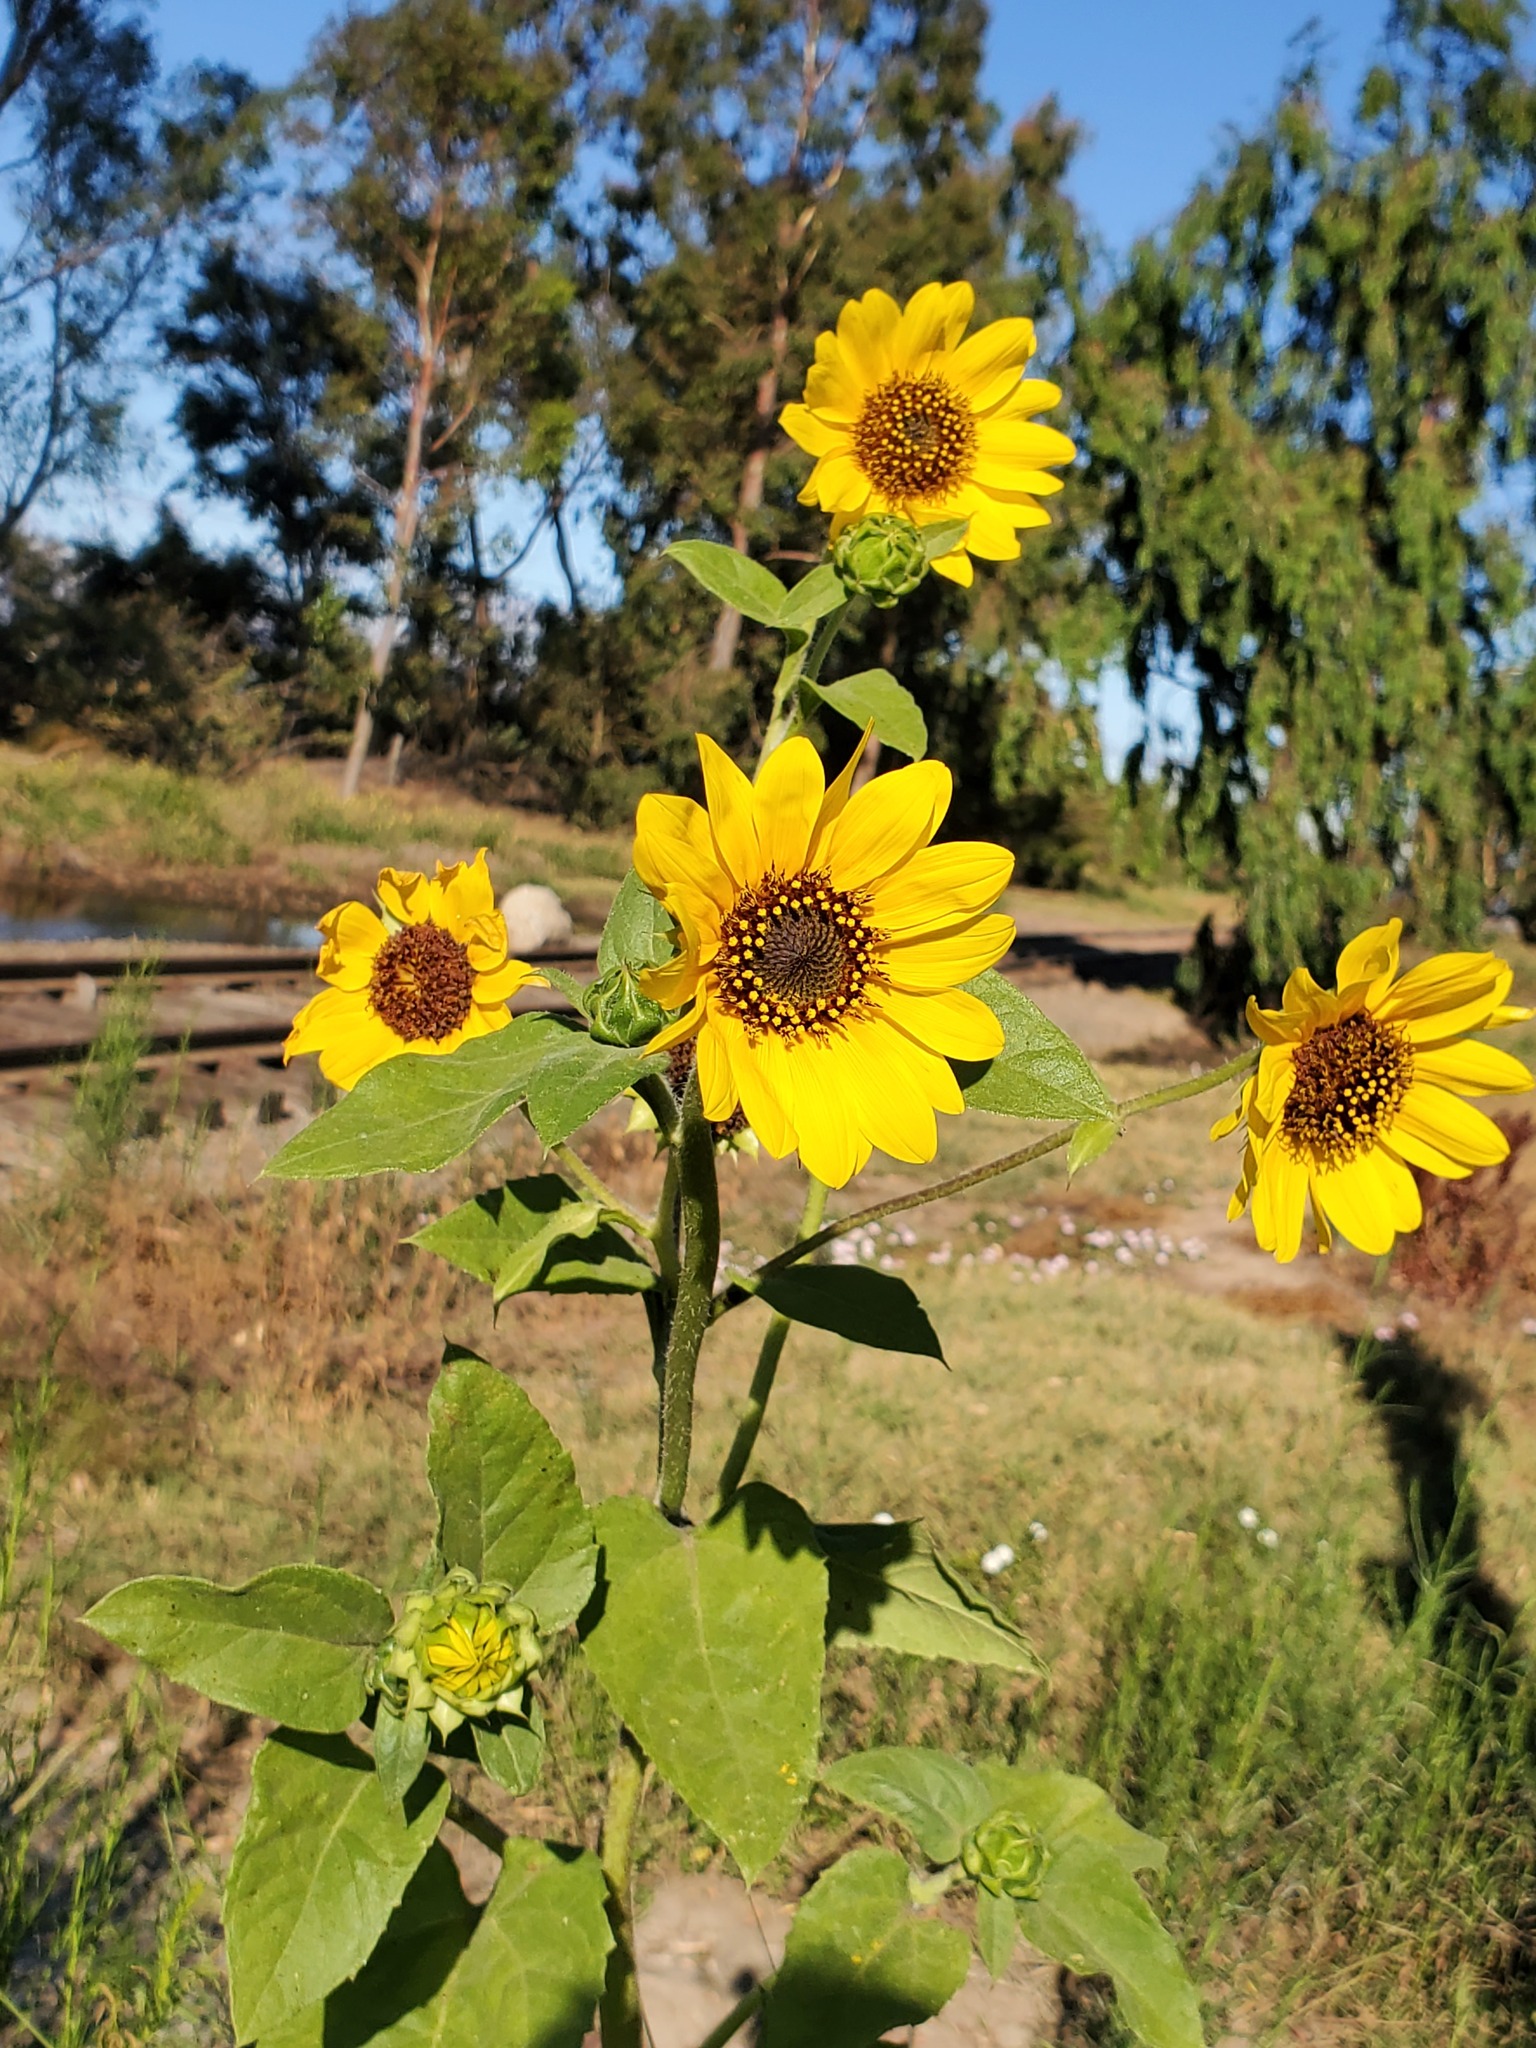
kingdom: Plantae
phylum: Tracheophyta
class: Magnoliopsida
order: Asterales
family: Asteraceae
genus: Helianthus
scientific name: Helianthus annuus
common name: Sunflower
